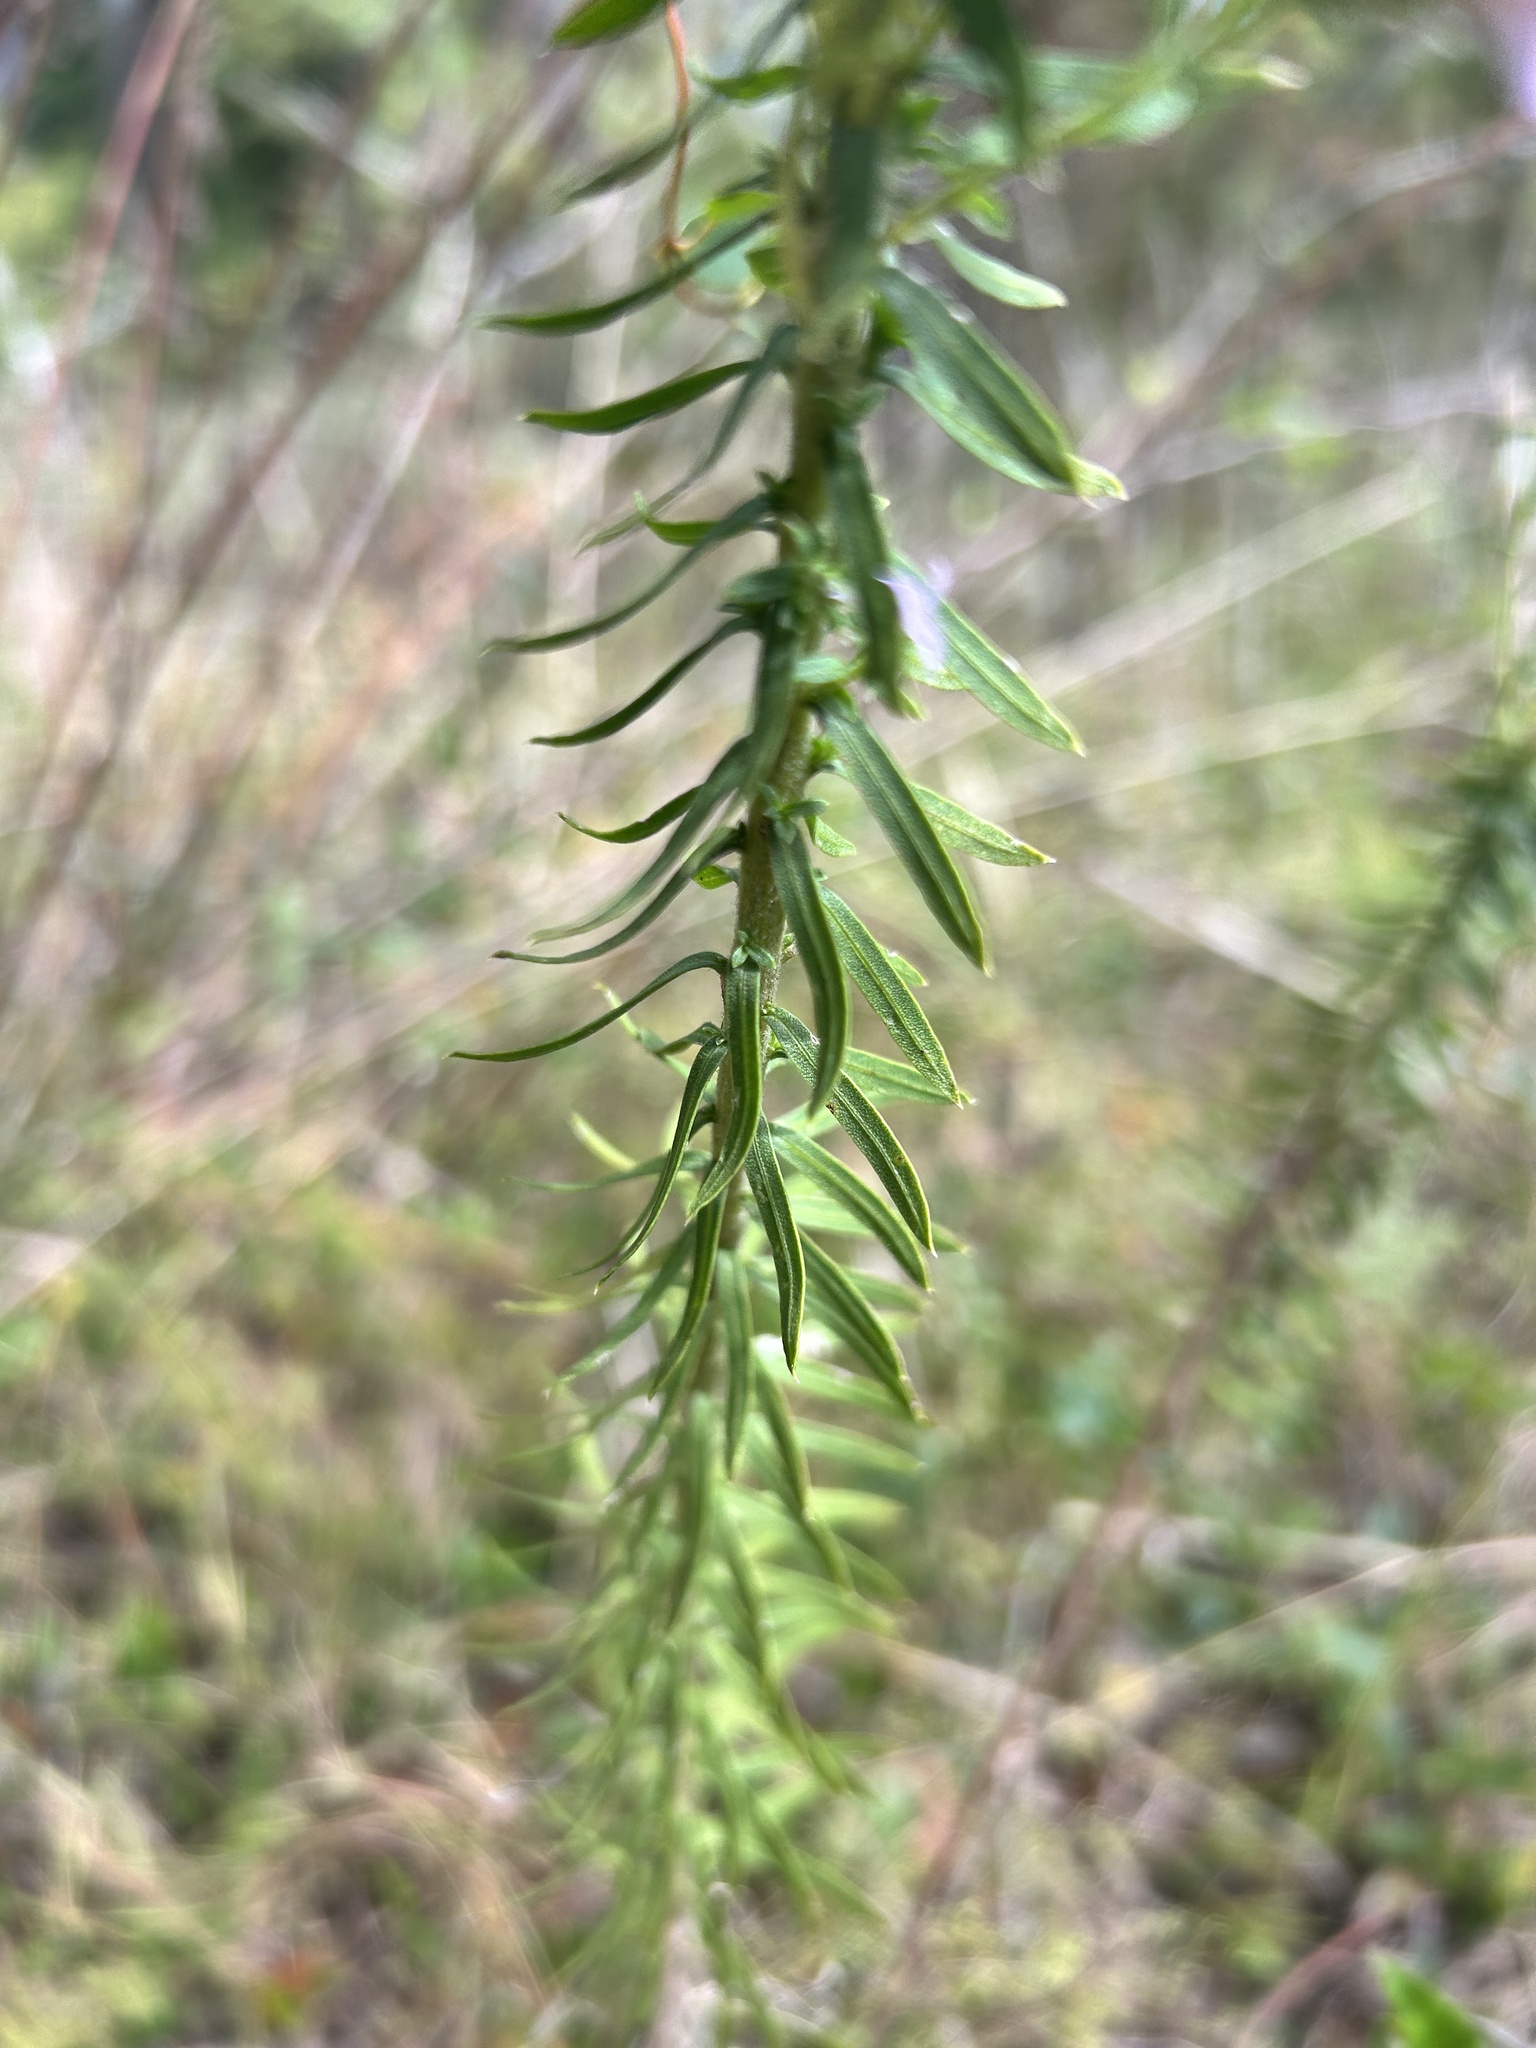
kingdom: Plantae
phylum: Tracheophyta
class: Magnoliopsida
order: Asterales
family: Asteraceae
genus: Liatris
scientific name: Liatris elegans
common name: Pinkscale gayfeather
